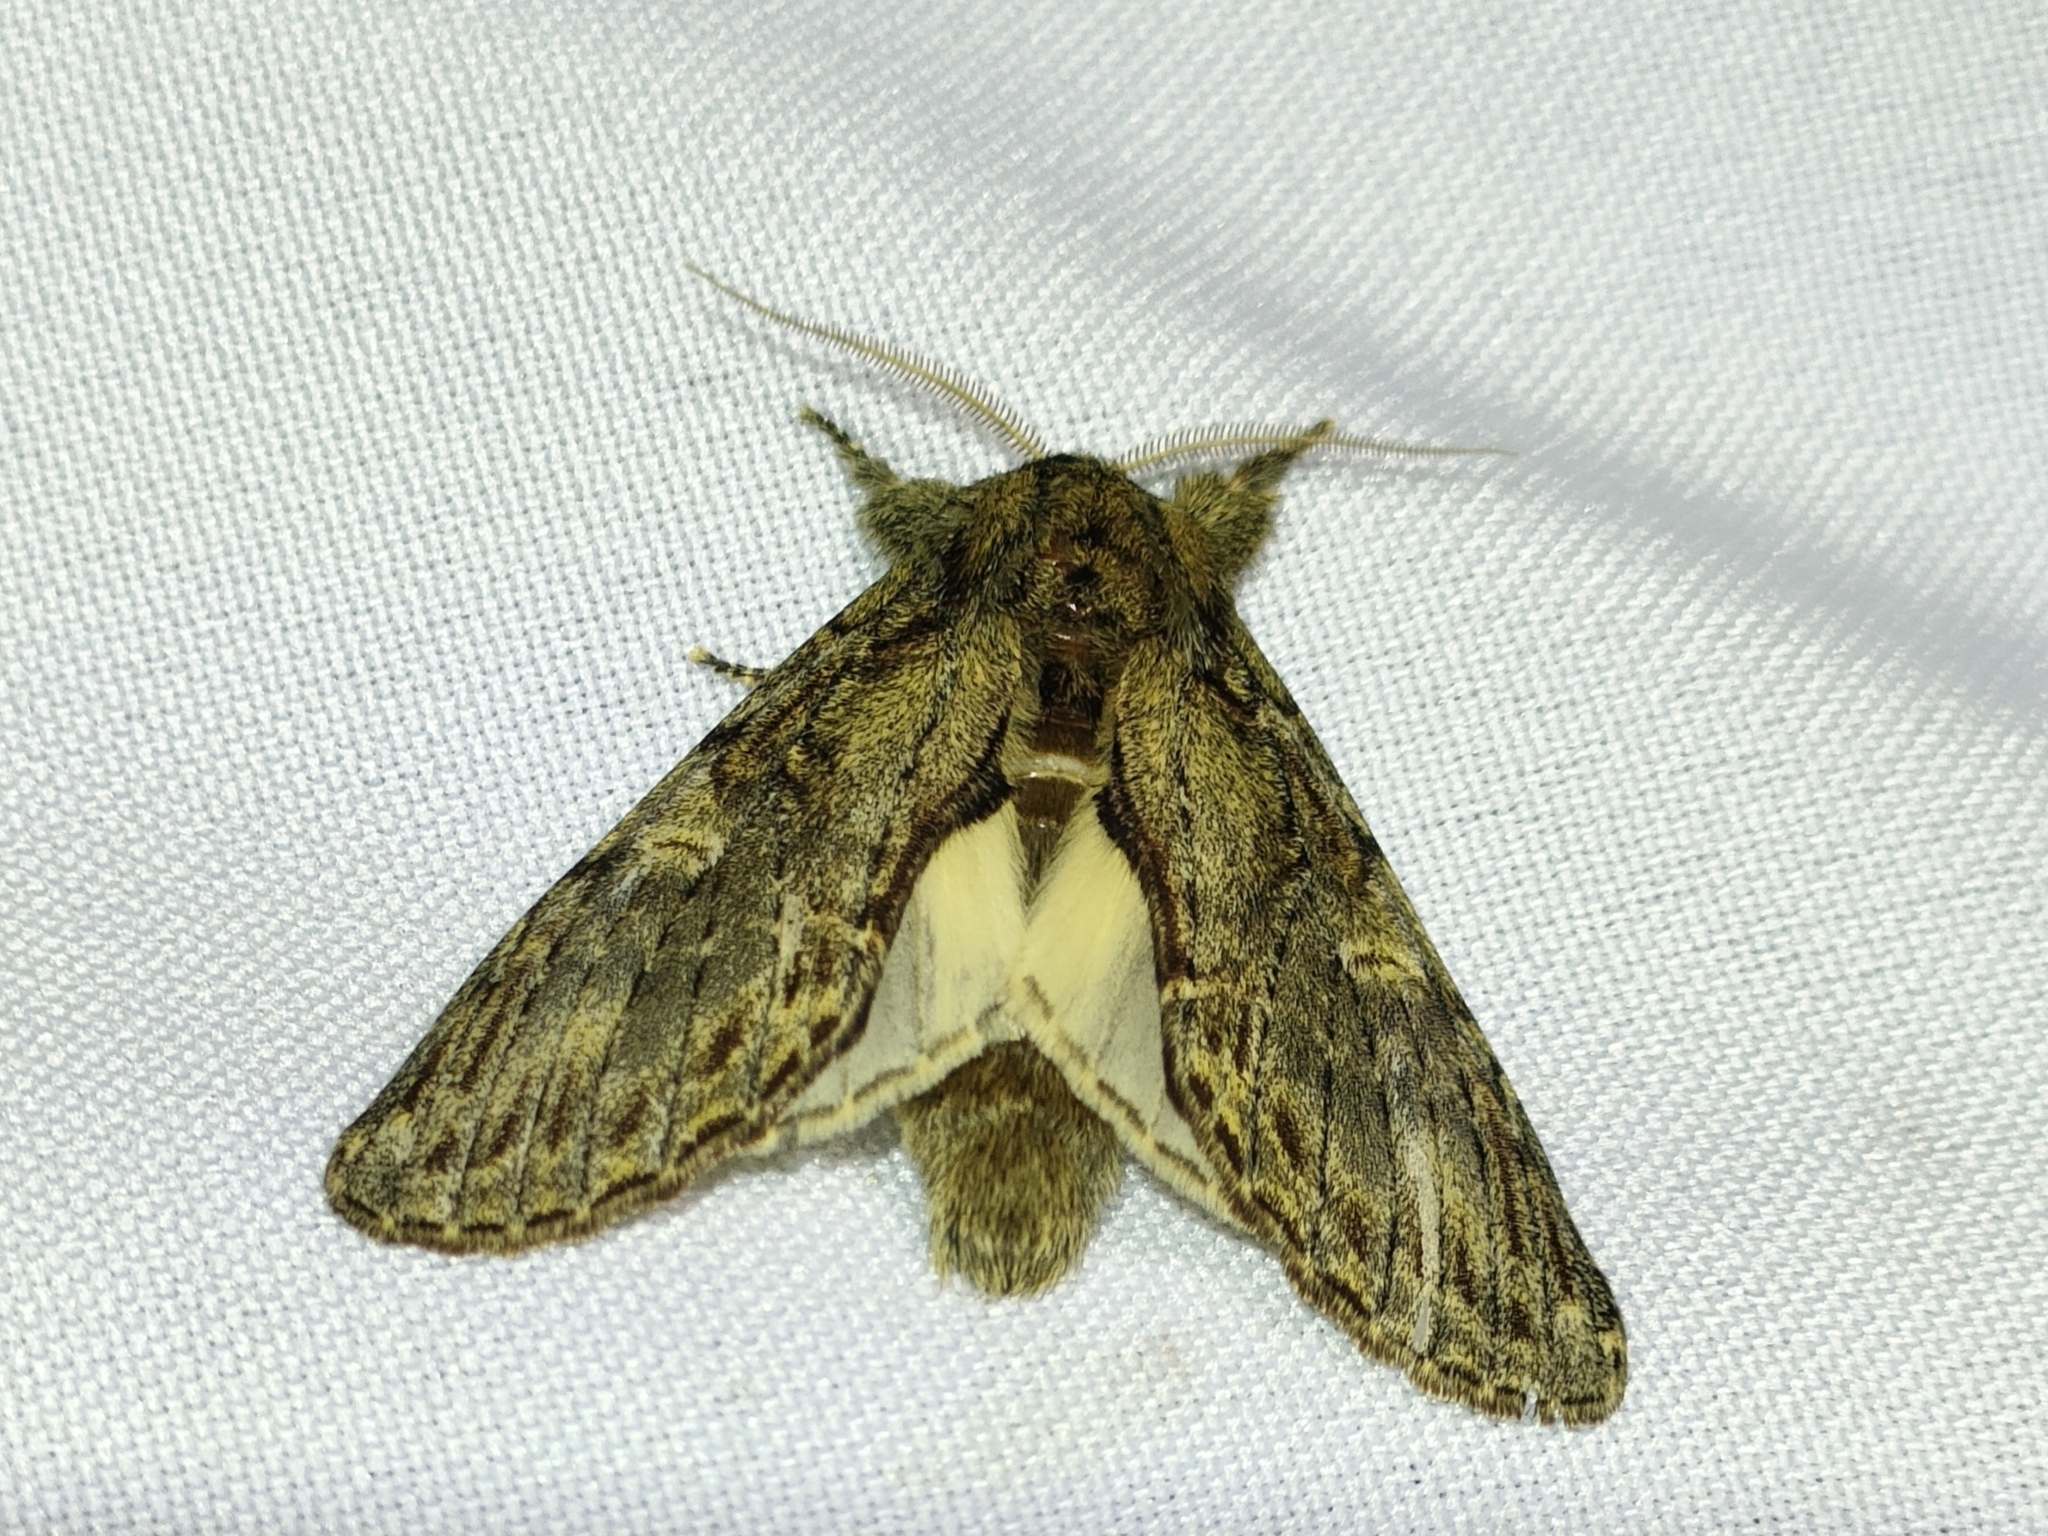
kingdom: Animalia
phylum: Arthropoda
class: Insecta
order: Lepidoptera
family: Notodontidae
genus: Peridea
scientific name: Peridea anceps
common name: Great prominent
